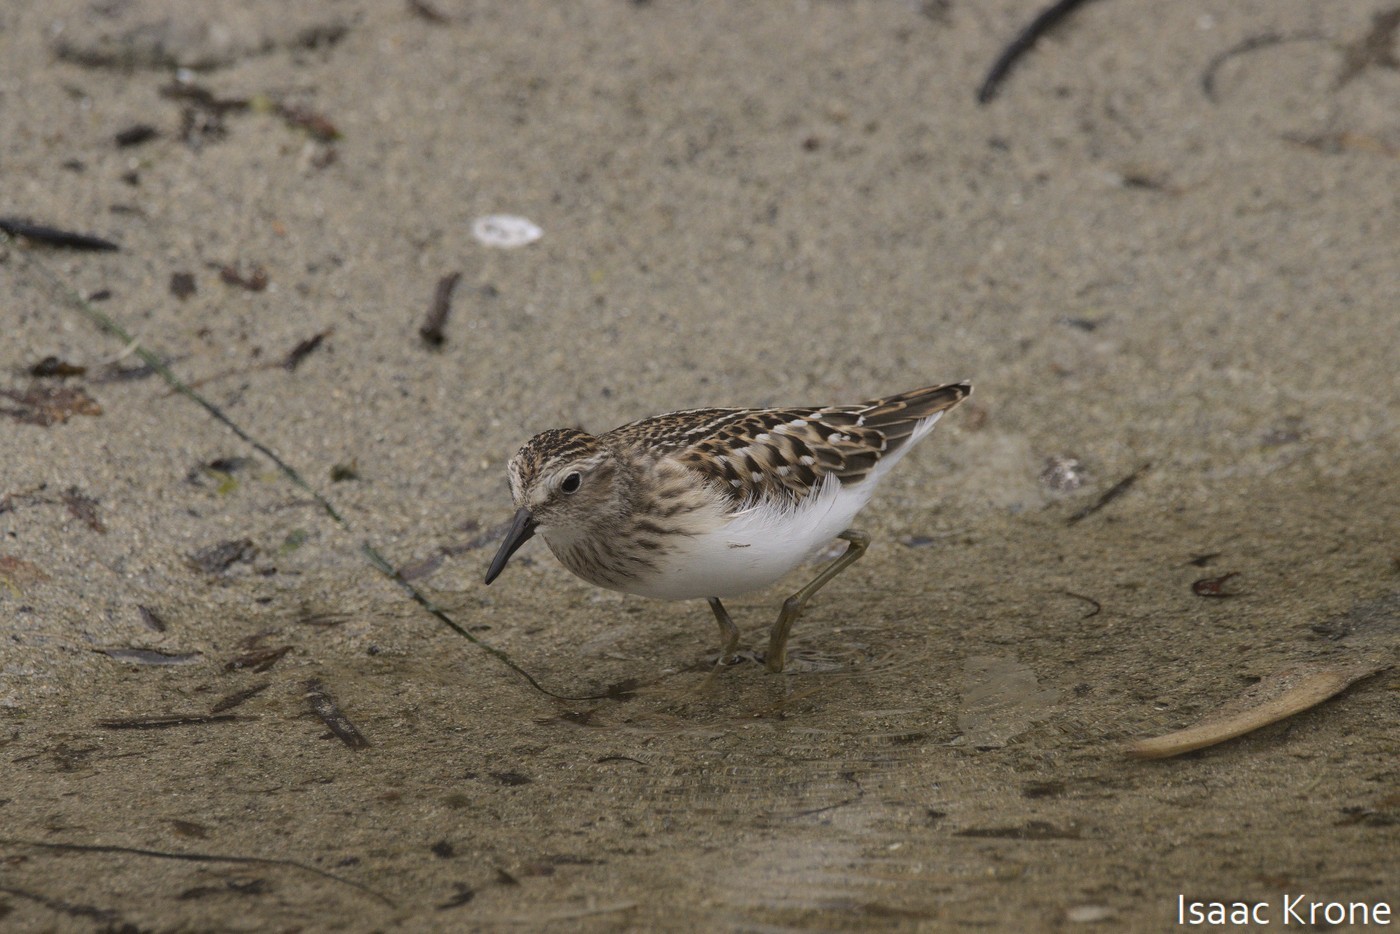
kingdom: Animalia
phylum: Chordata
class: Aves
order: Charadriiformes
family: Scolopacidae
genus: Calidris
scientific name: Calidris minutilla
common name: Least sandpiper
